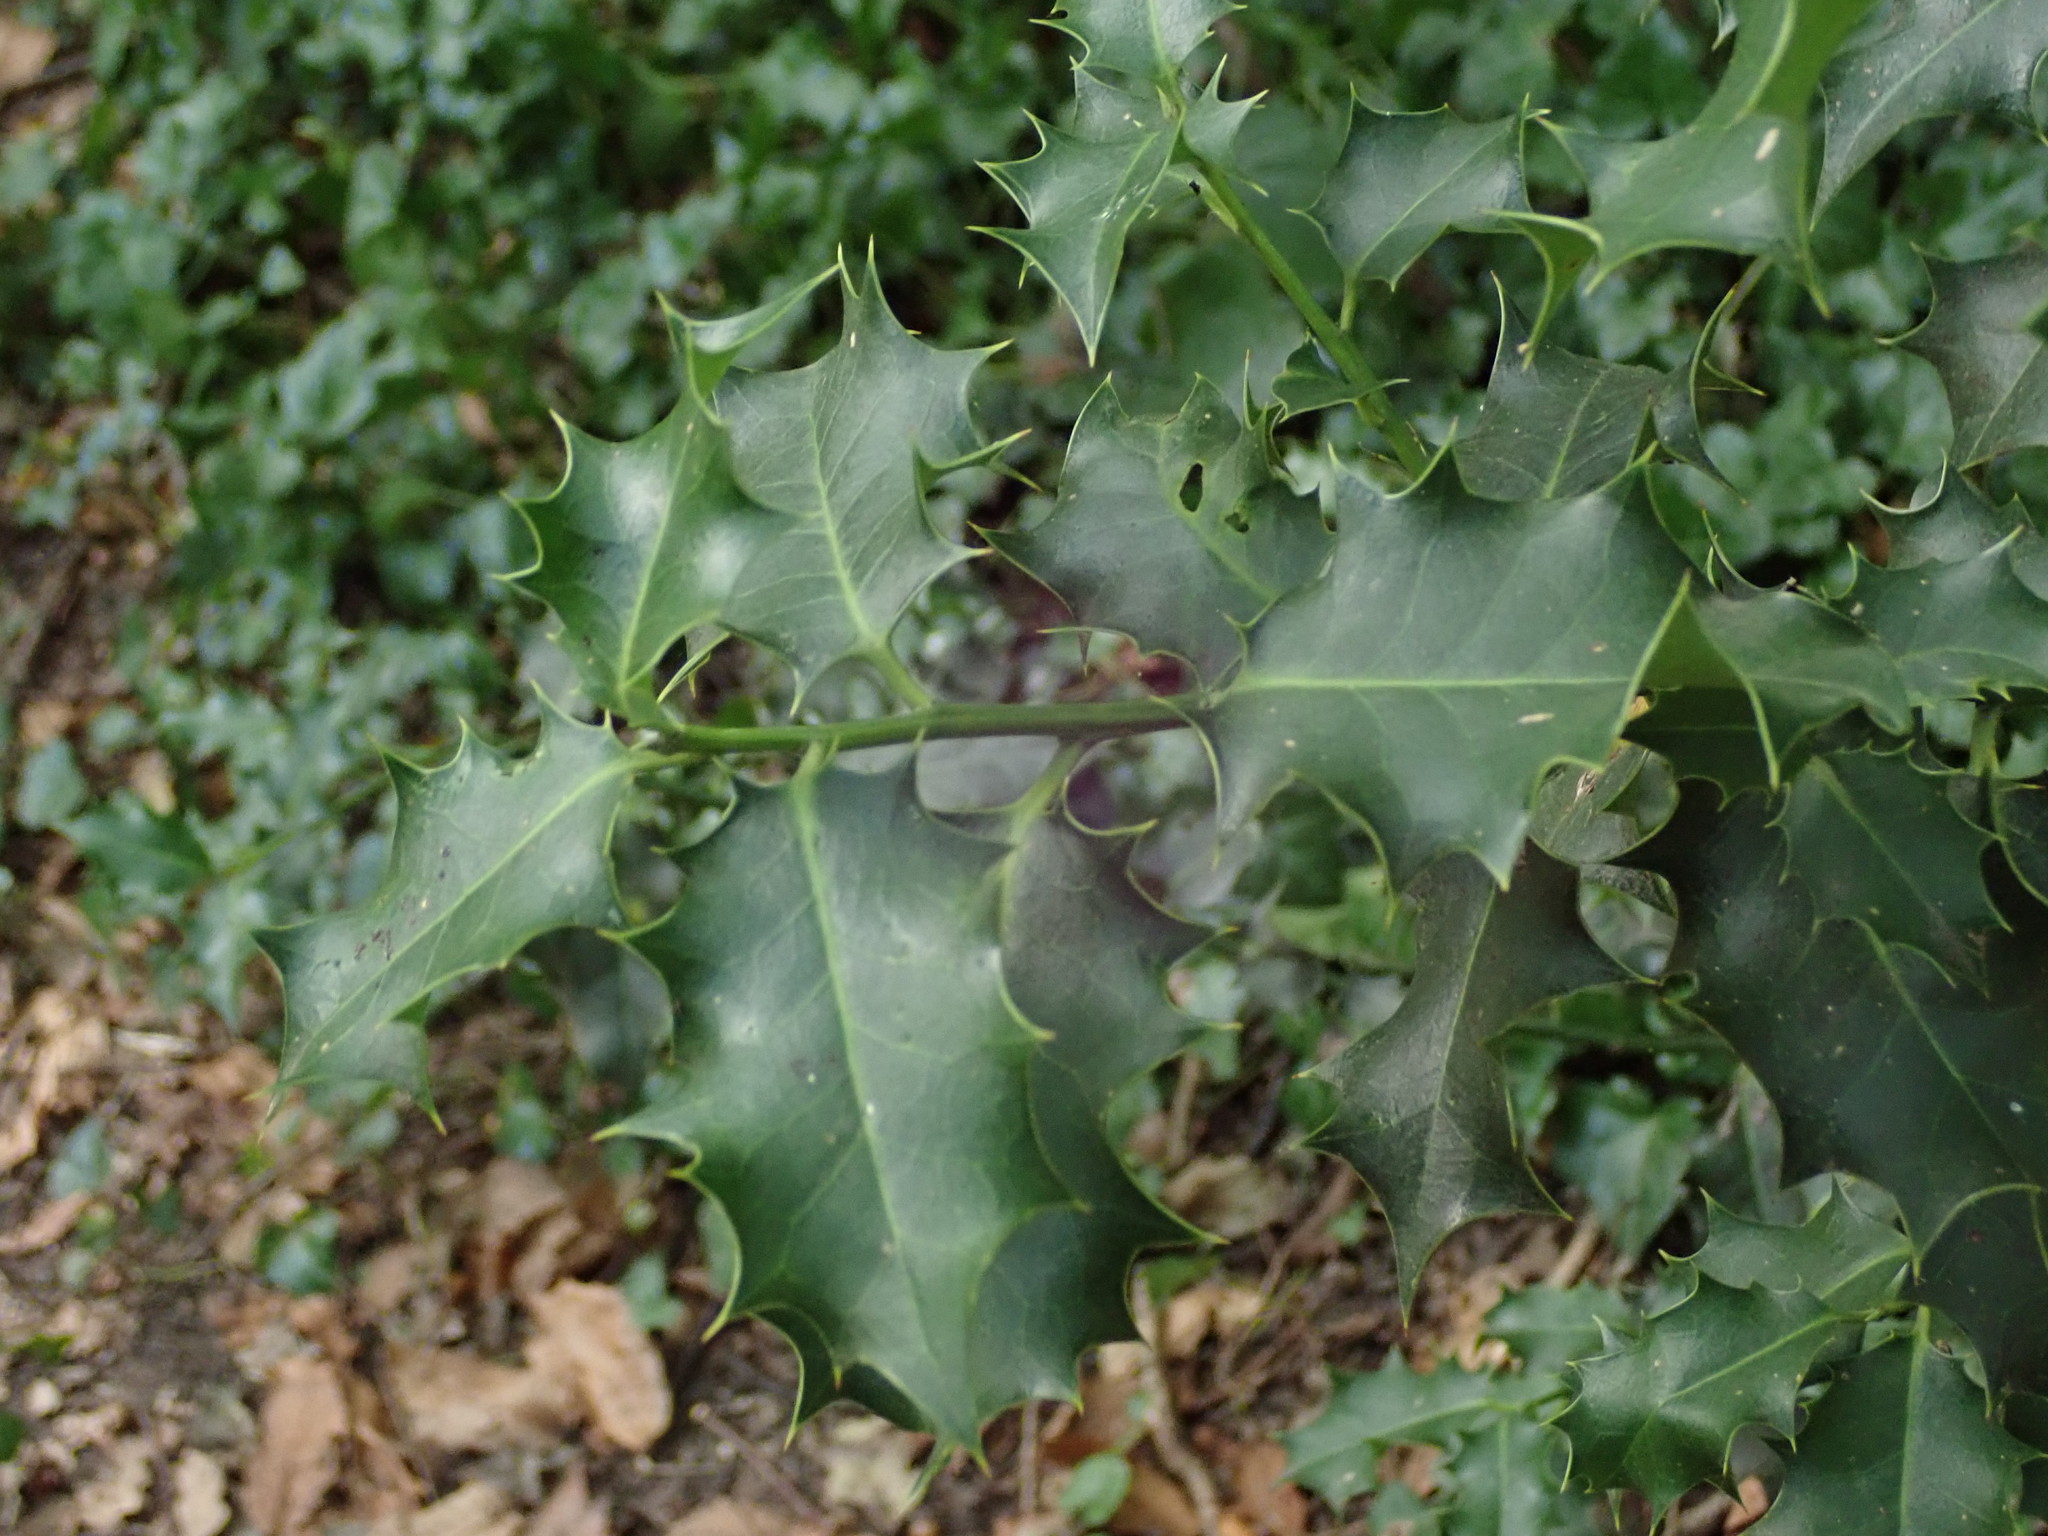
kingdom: Plantae
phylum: Tracheophyta
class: Magnoliopsida
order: Aquifoliales
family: Aquifoliaceae
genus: Ilex
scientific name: Ilex aquifolium
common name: English holly
